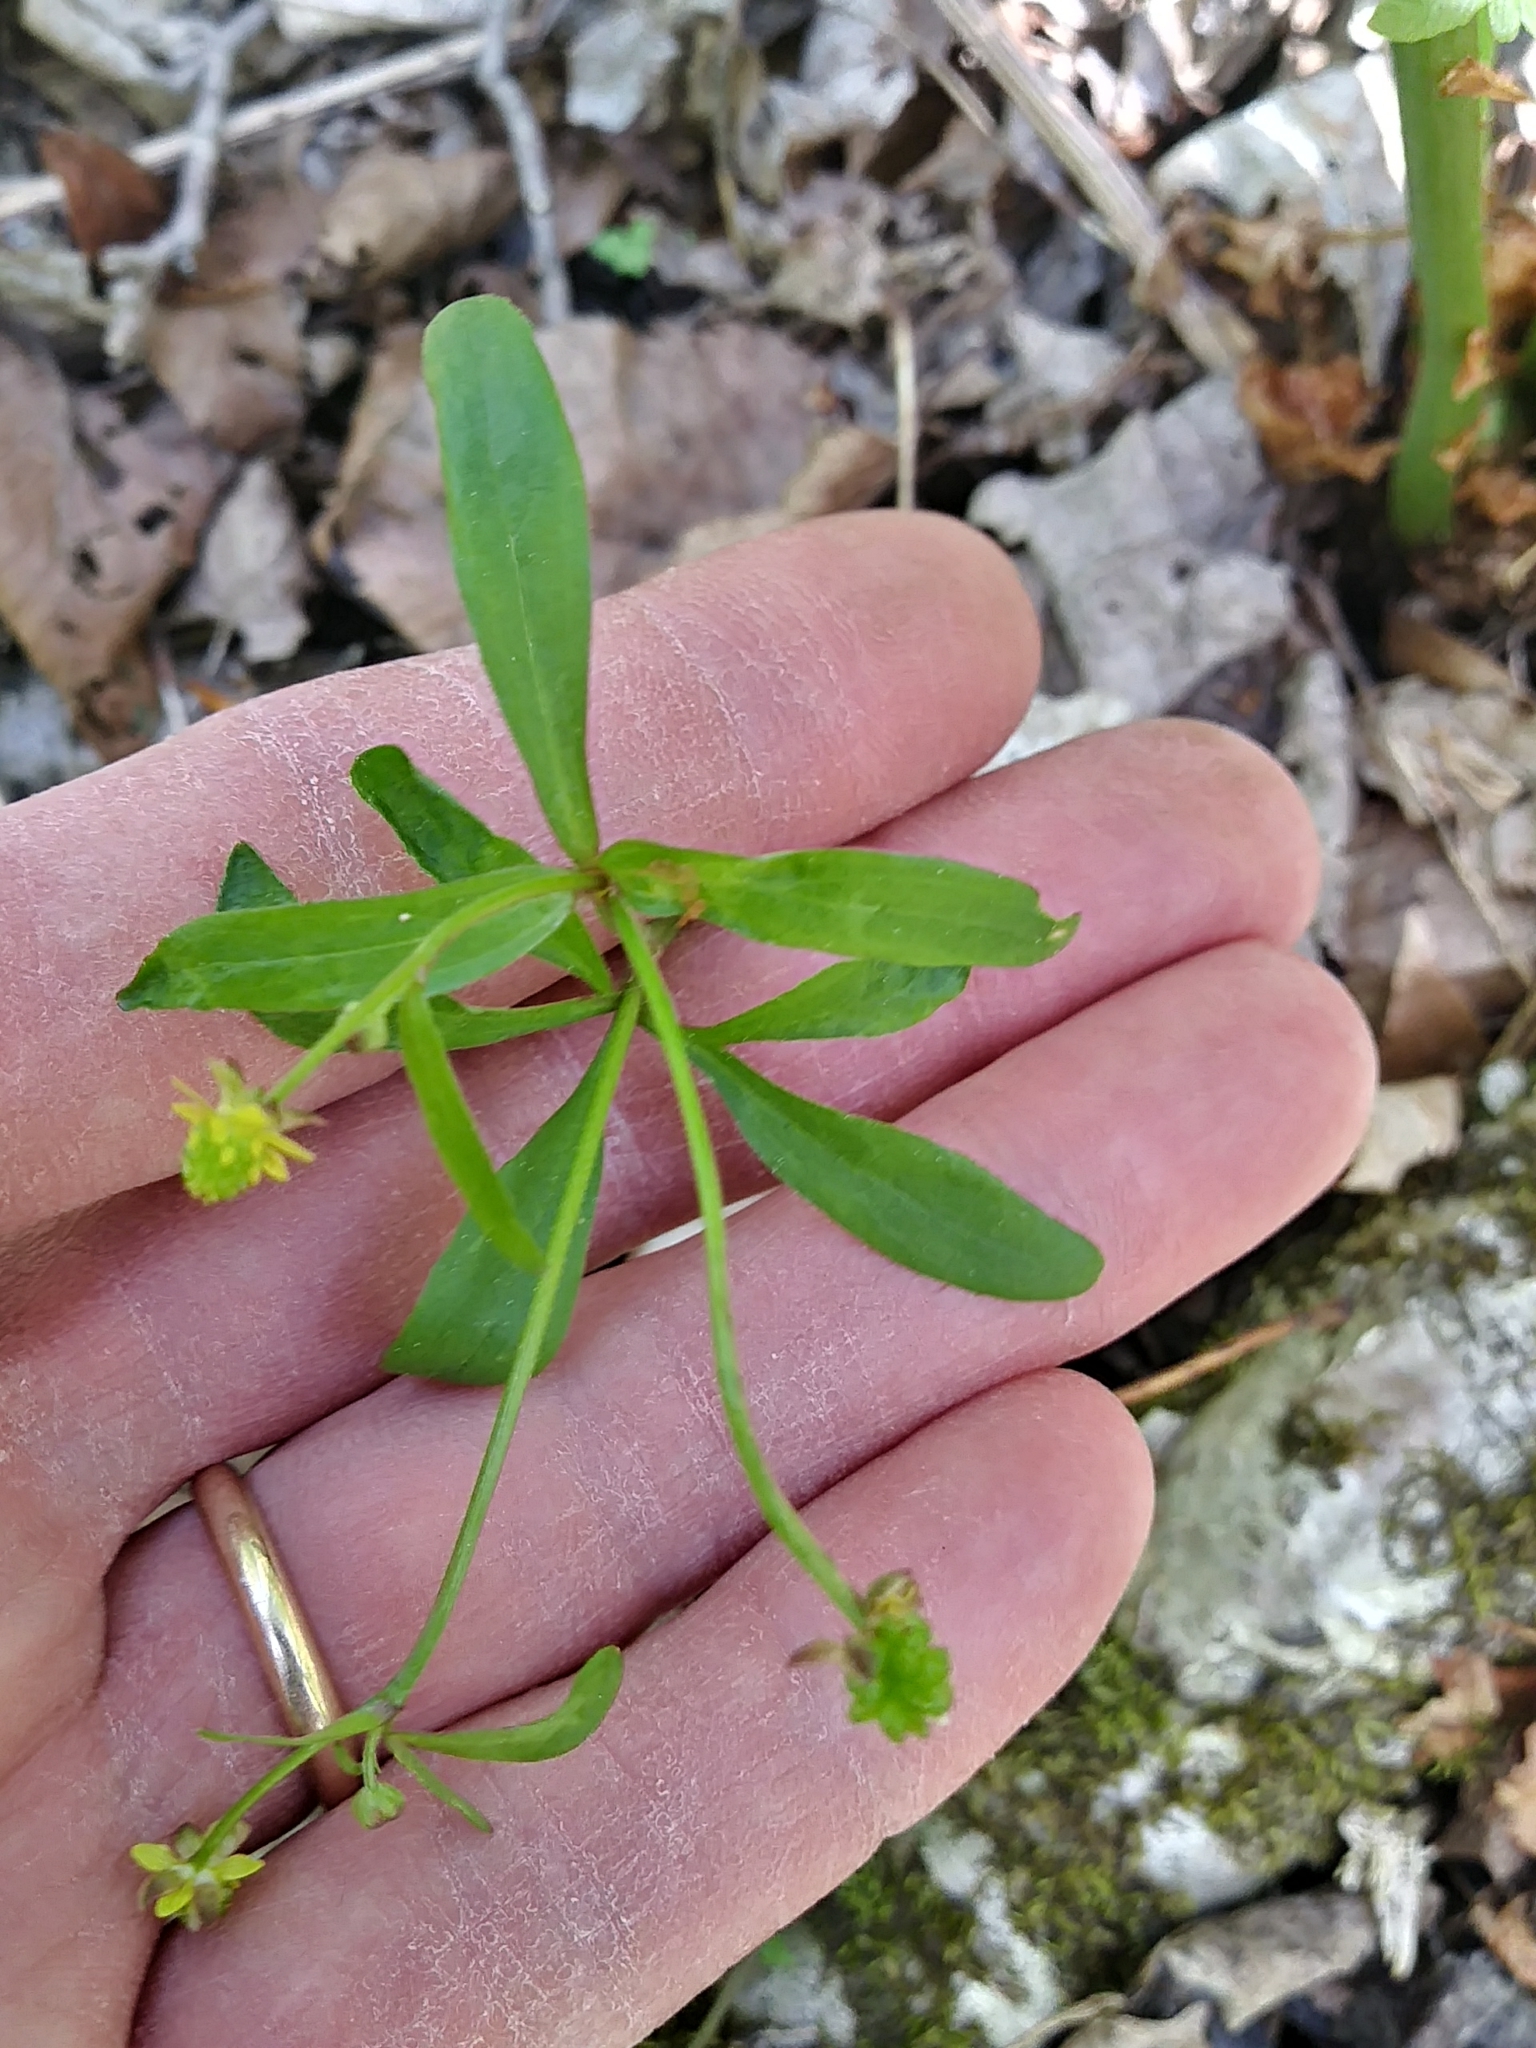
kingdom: Plantae
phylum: Tracheophyta
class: Magnoliopsida
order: Ranunculales
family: Ranunculaceae
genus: Ranunculus
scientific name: Ranunculus abortivus
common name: Early wood buttercup
